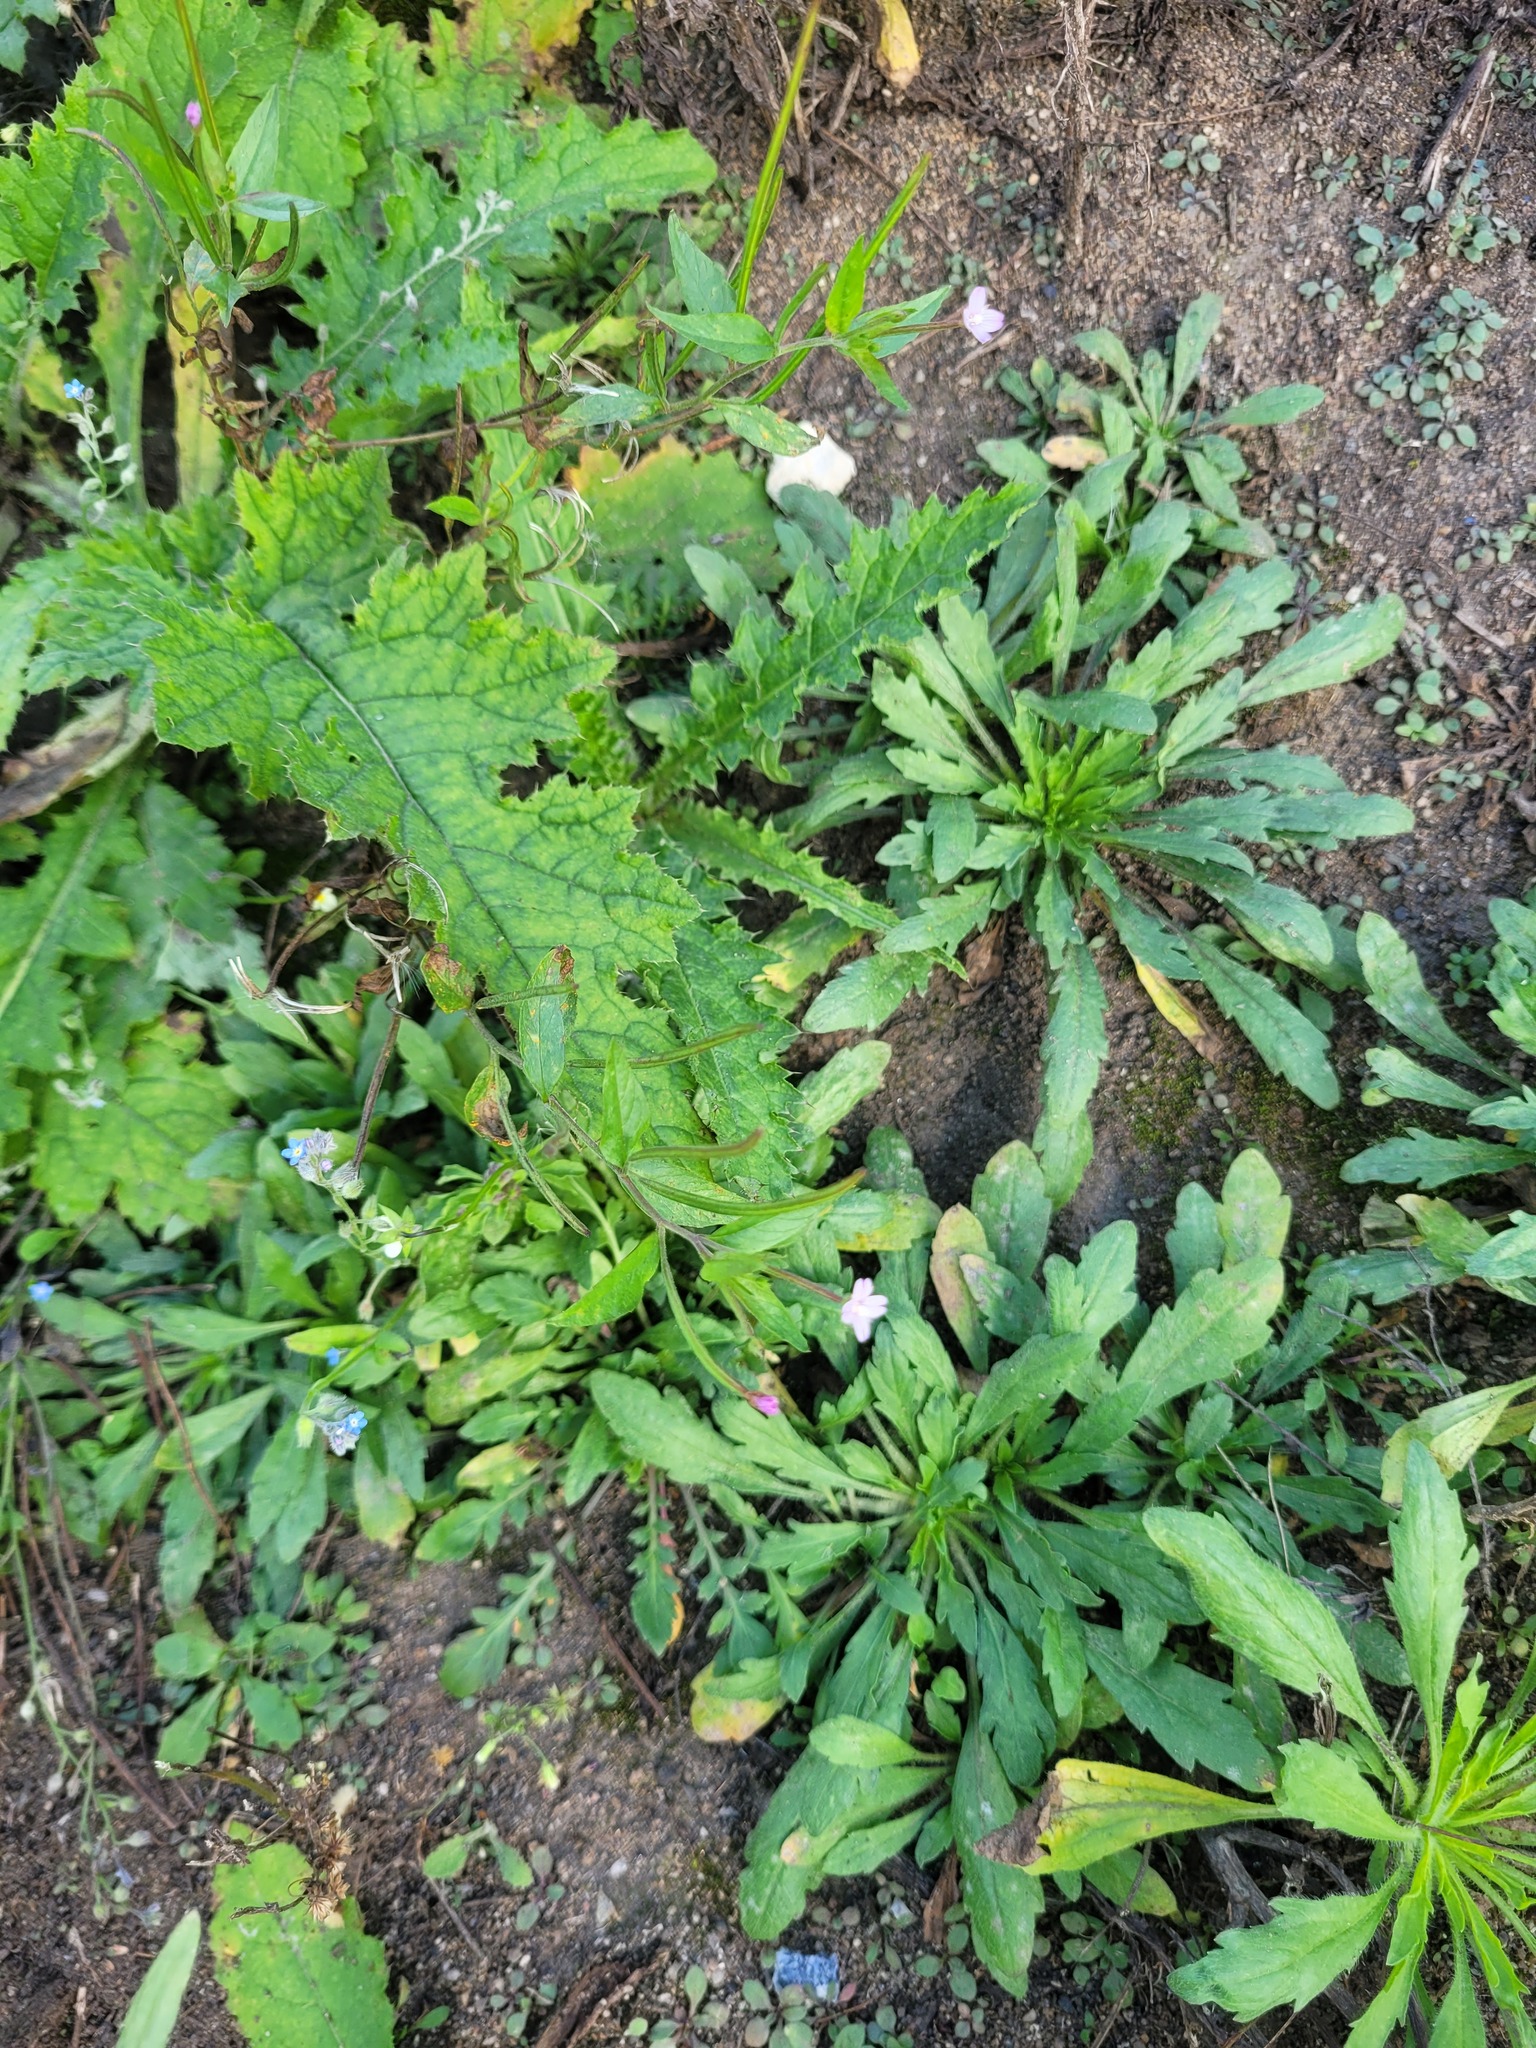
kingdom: Plantae
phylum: Tracheophyta
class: Magnoliopsida
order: Myrtales
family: Onagraceae
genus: Epilobium
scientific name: Epilobium ciliatum
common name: American willowherb
